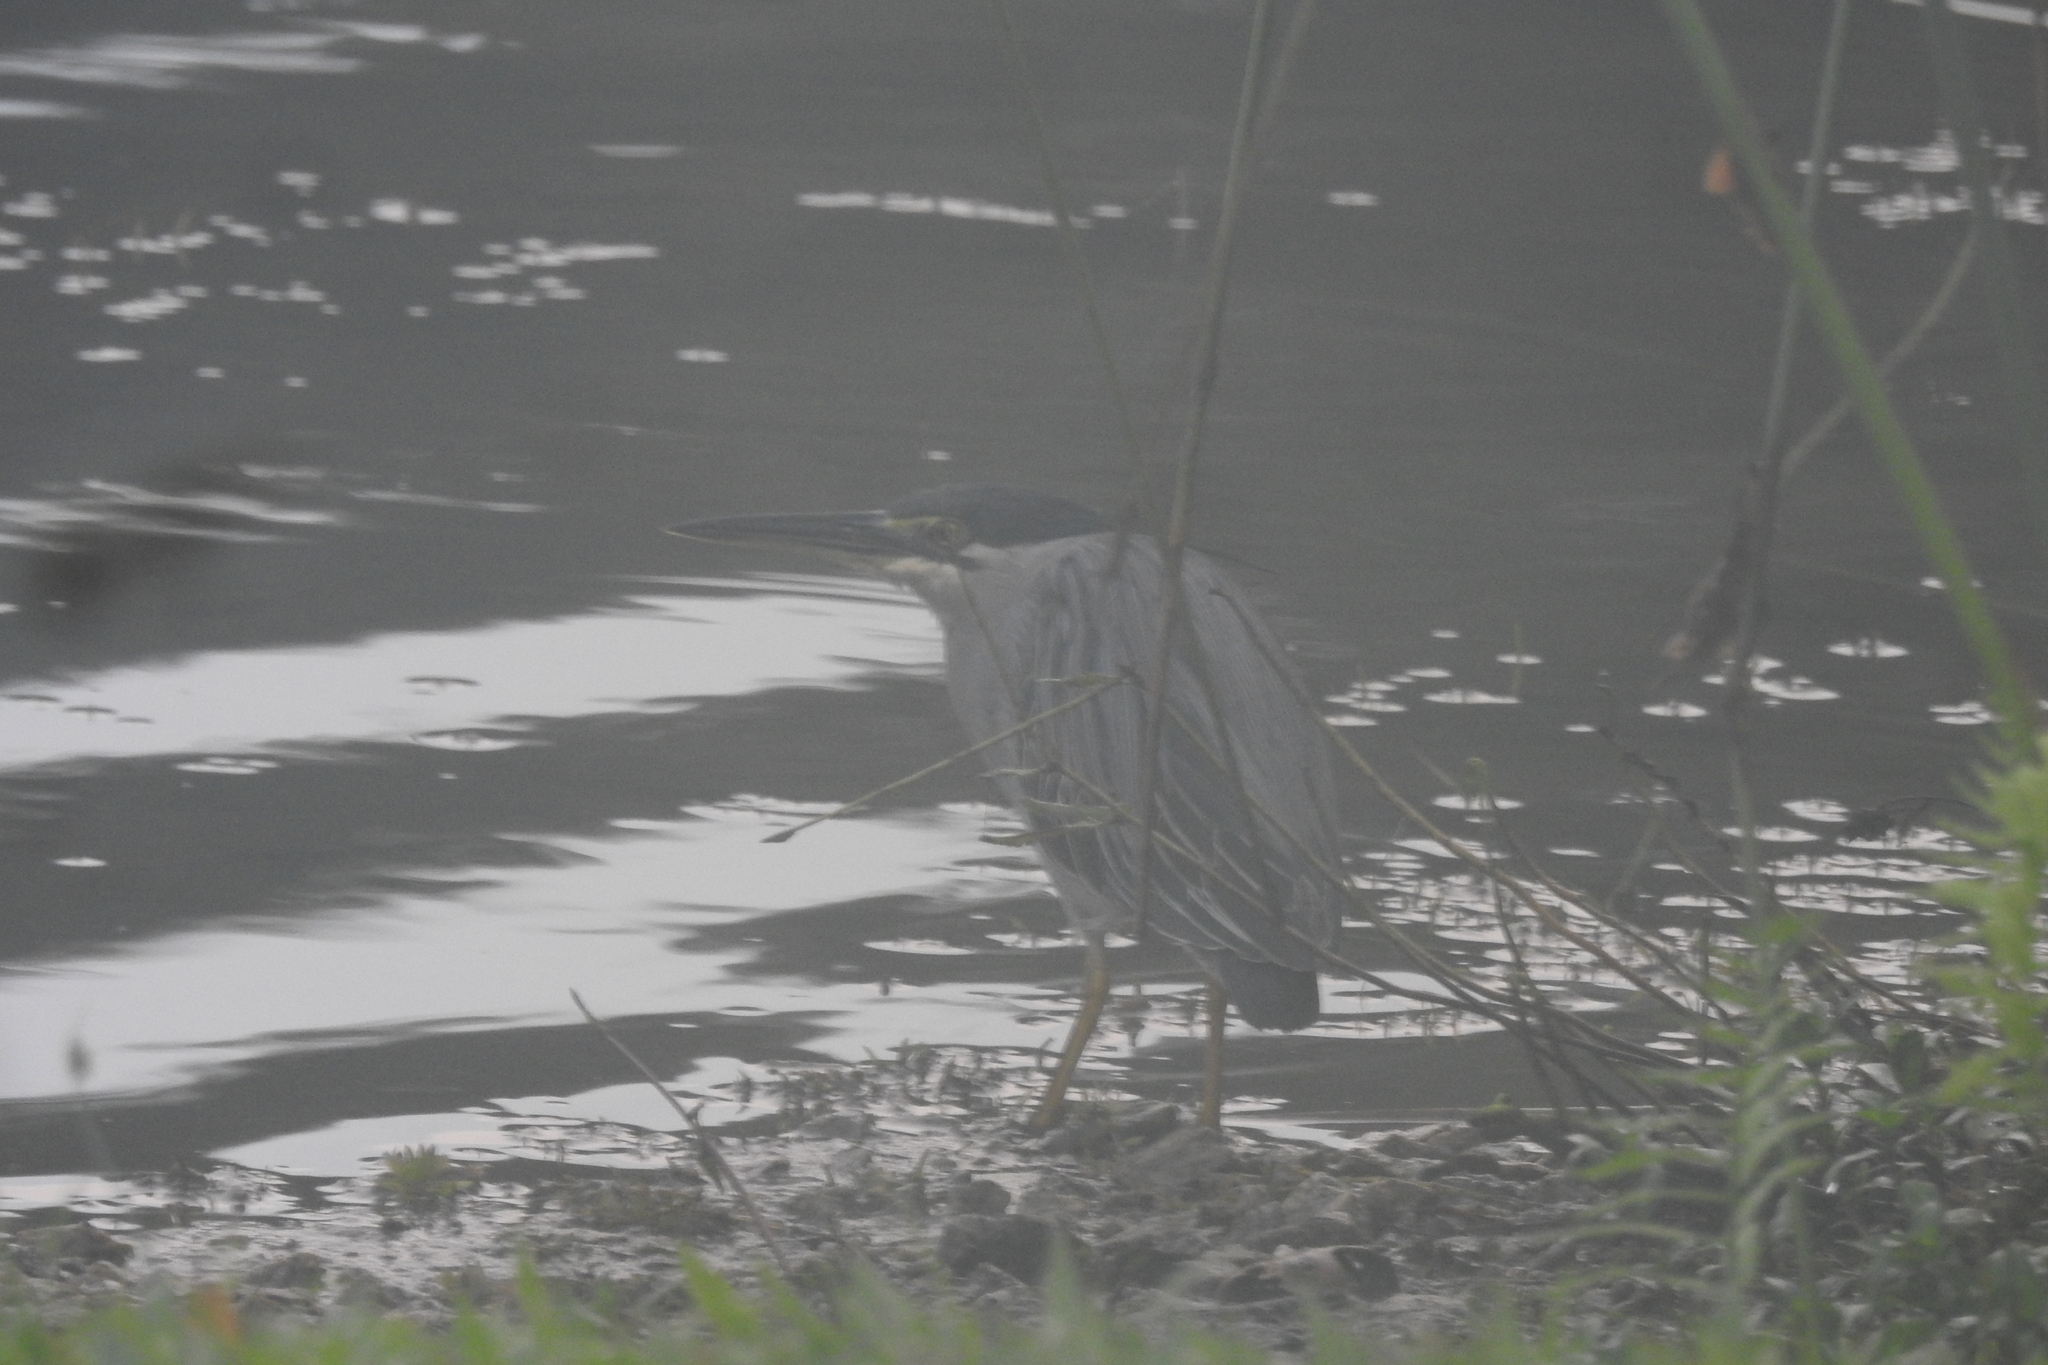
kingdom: Animalia
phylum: Chordata
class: Aves
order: Pelecaniformes
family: Ardeidae
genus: Butorides
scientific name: Butorides striata
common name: Striated heron
